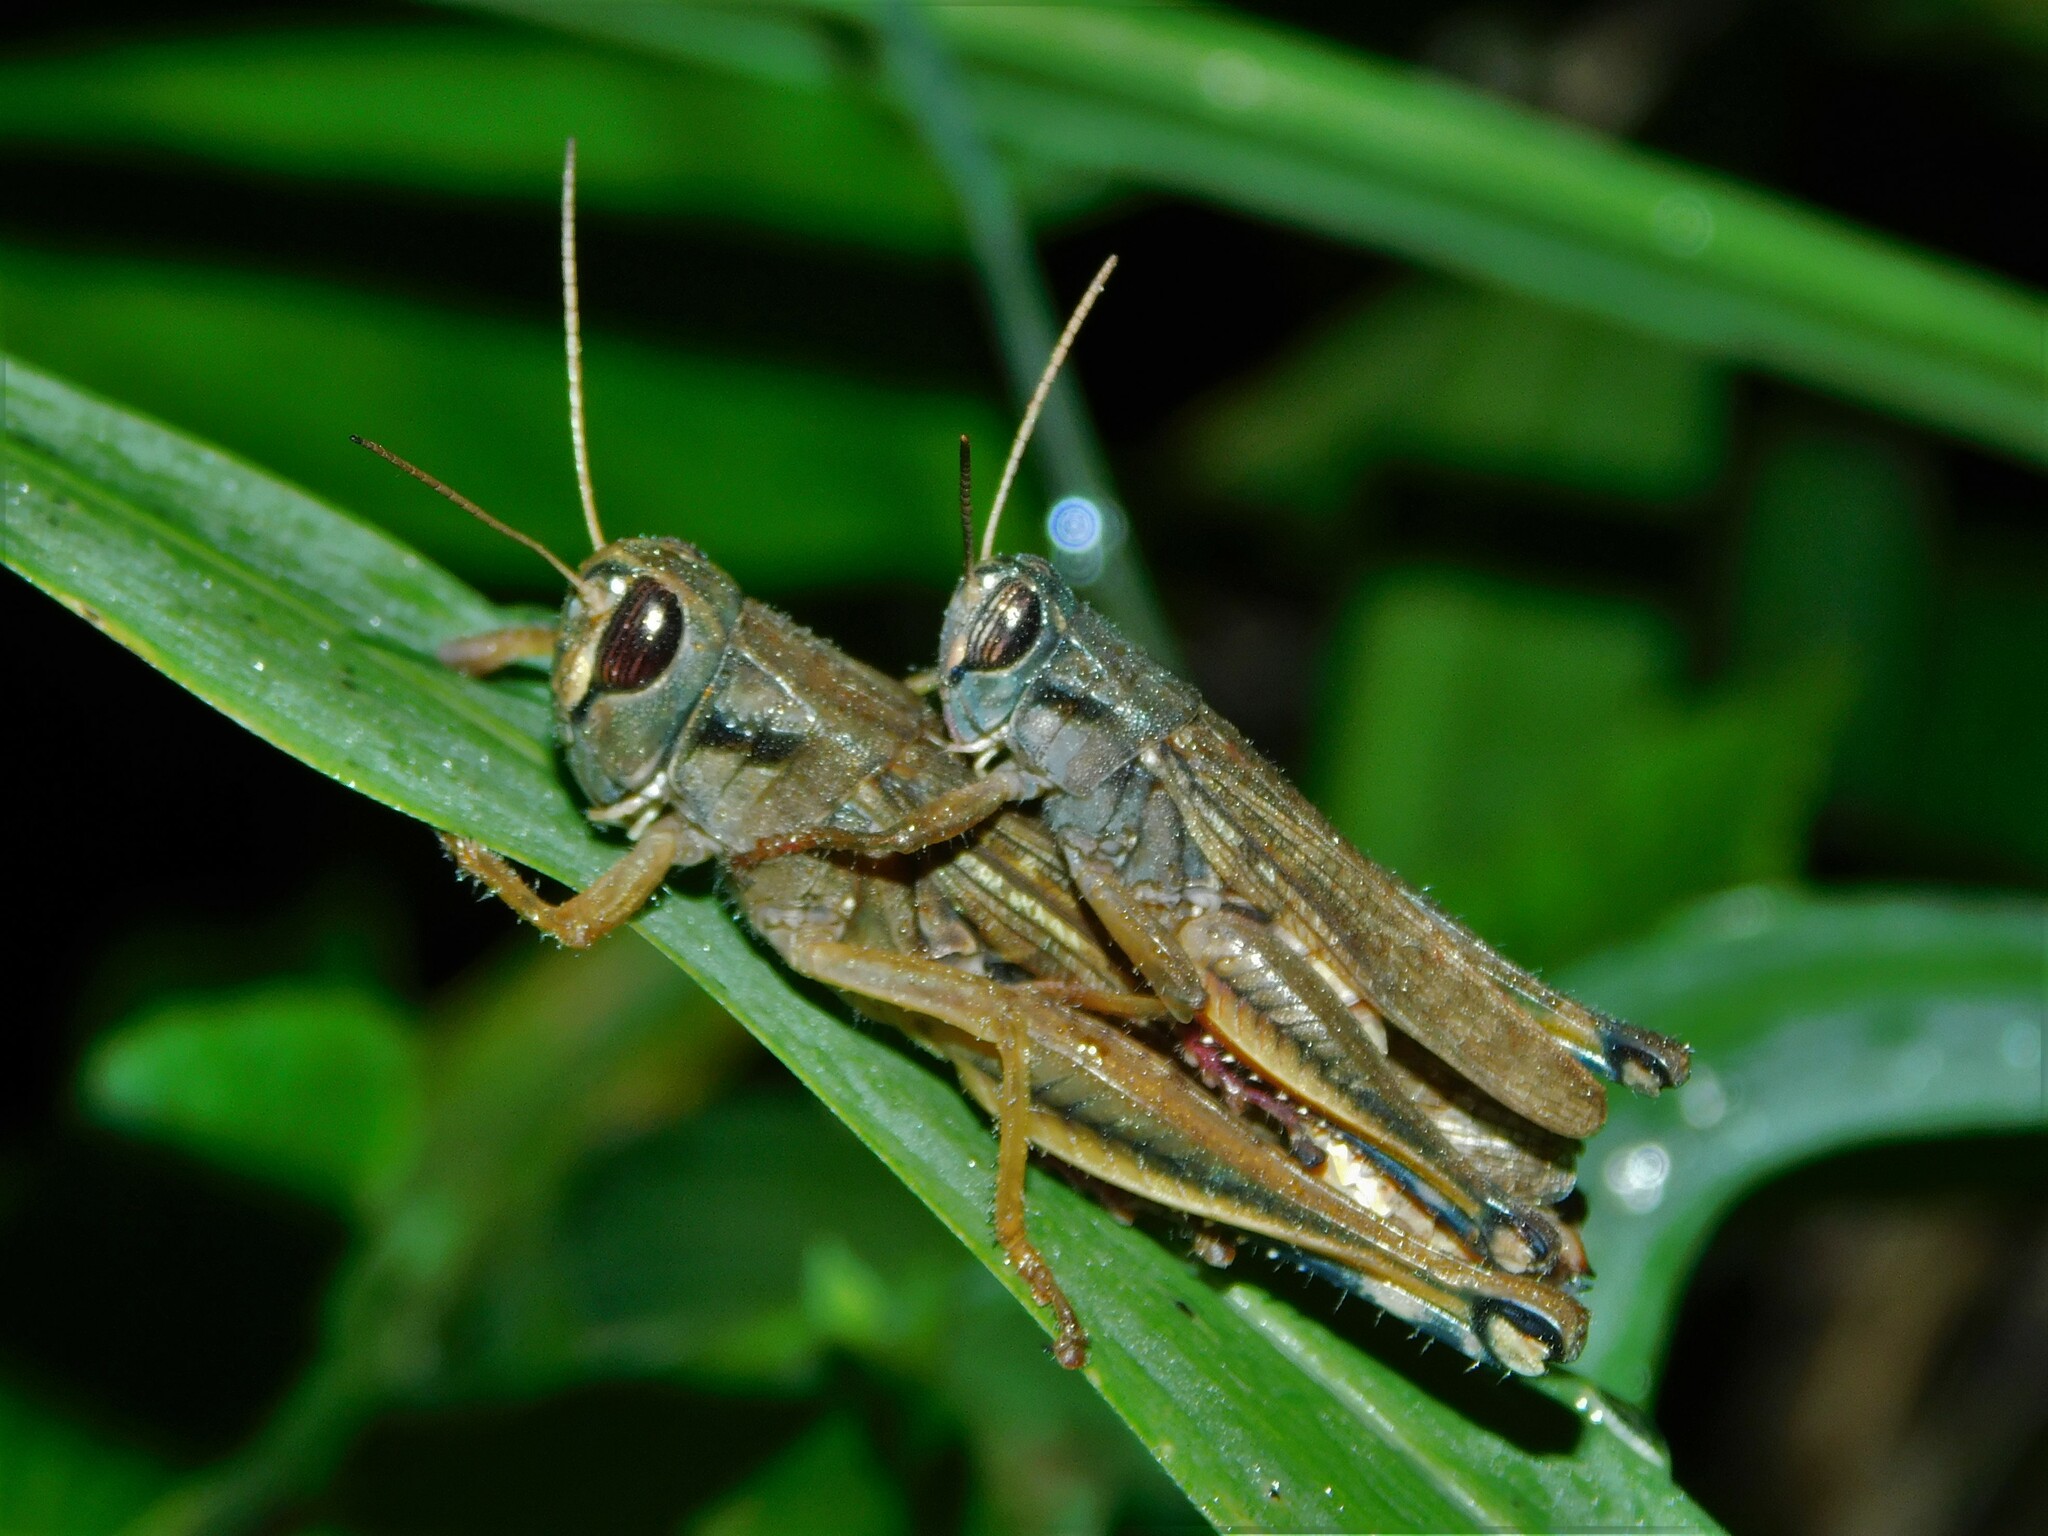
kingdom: Animalia
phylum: Arthropoda
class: Insecta
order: Orthoptera
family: Acrididae
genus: Eyprepocnemis
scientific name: Eyprepocnemis plorans
